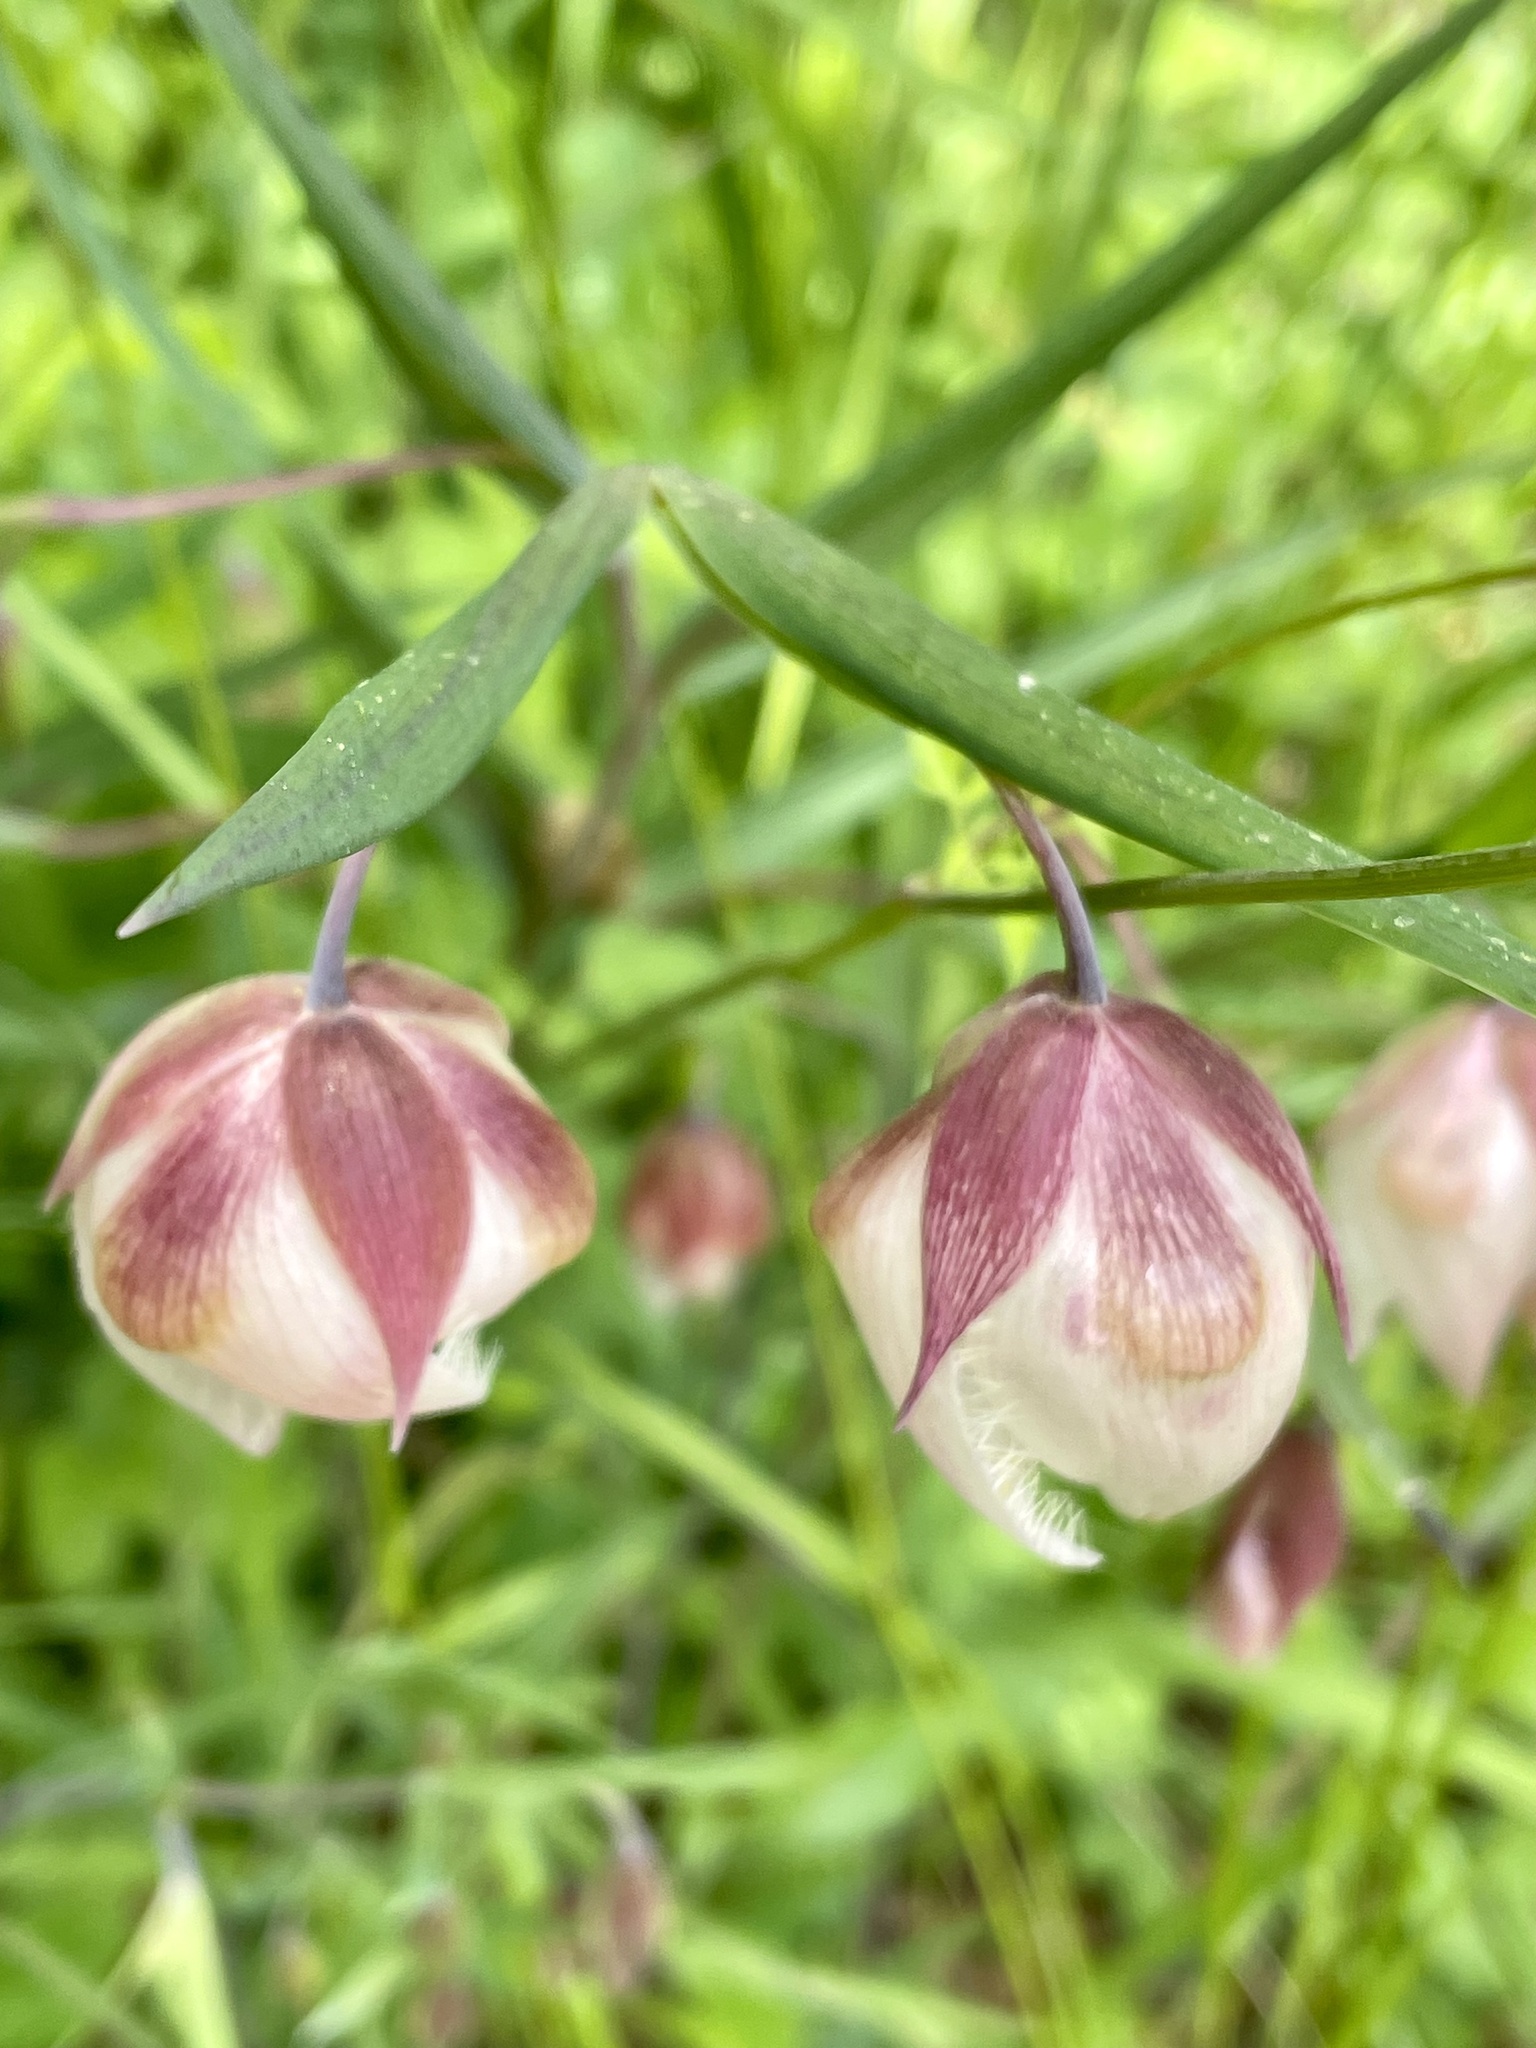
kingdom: Plantae
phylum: Tracheophyta
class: Liliopsida
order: Liliales
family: Liliaceae
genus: Calochortus
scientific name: Calochortus albus
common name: Fairy-lantern
